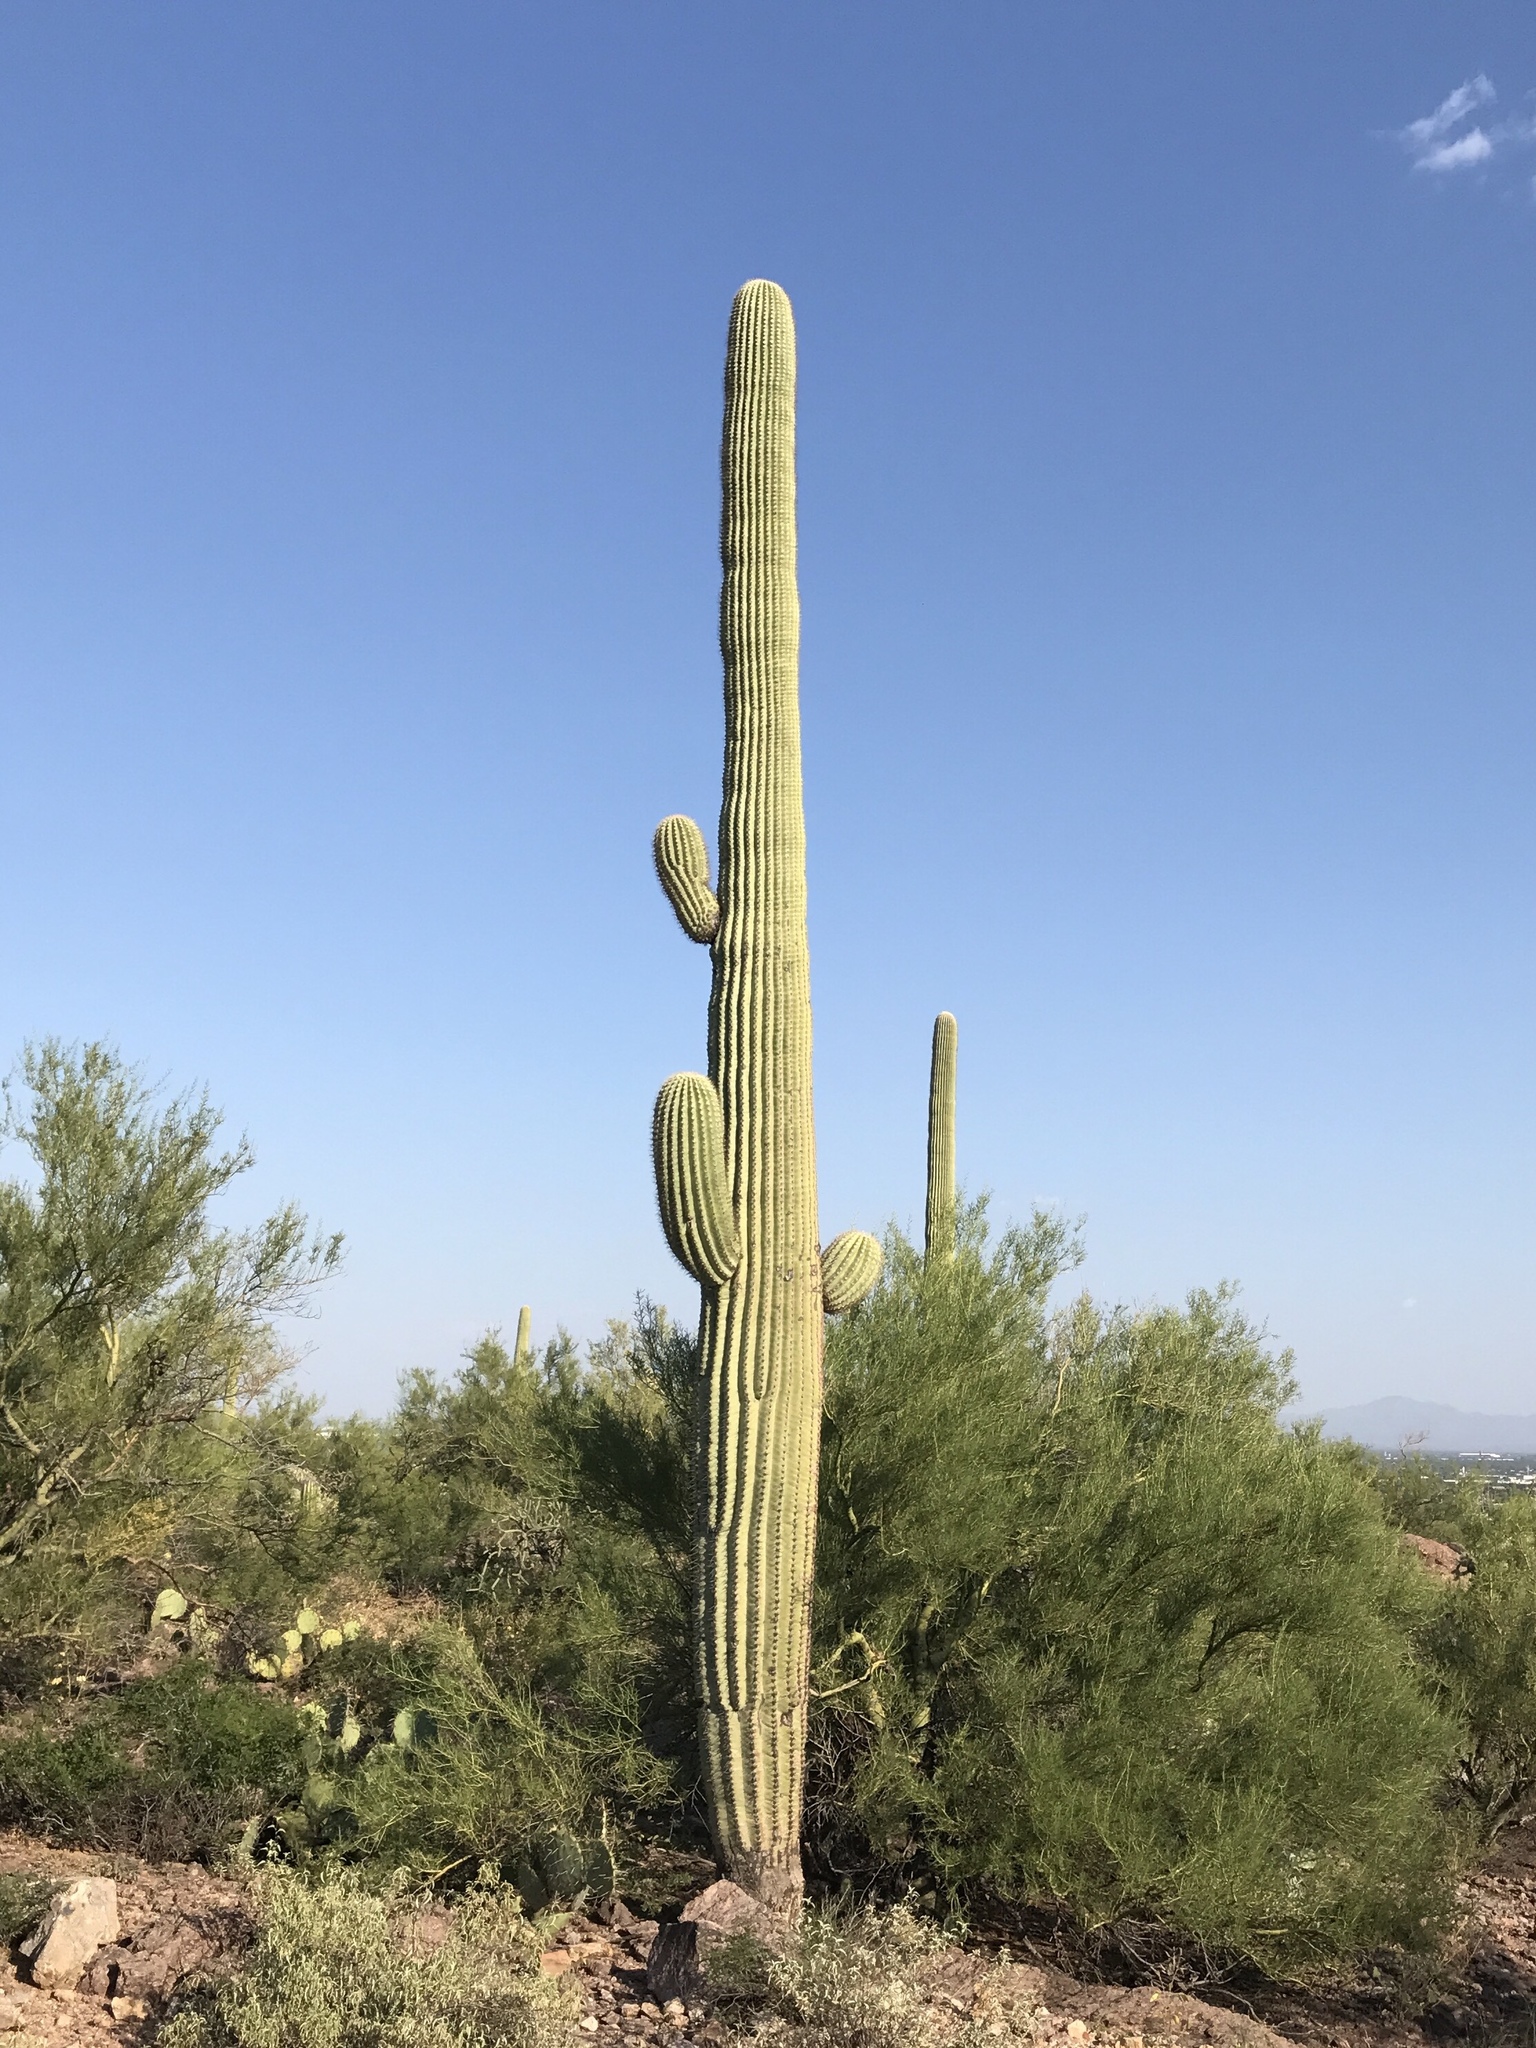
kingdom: Plantae
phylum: Tracheophyta
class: Magnoliopsida
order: Caryophyllales
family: Cactaceae
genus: Carnegiea
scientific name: Carnegiea gigantea
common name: Saguaro
